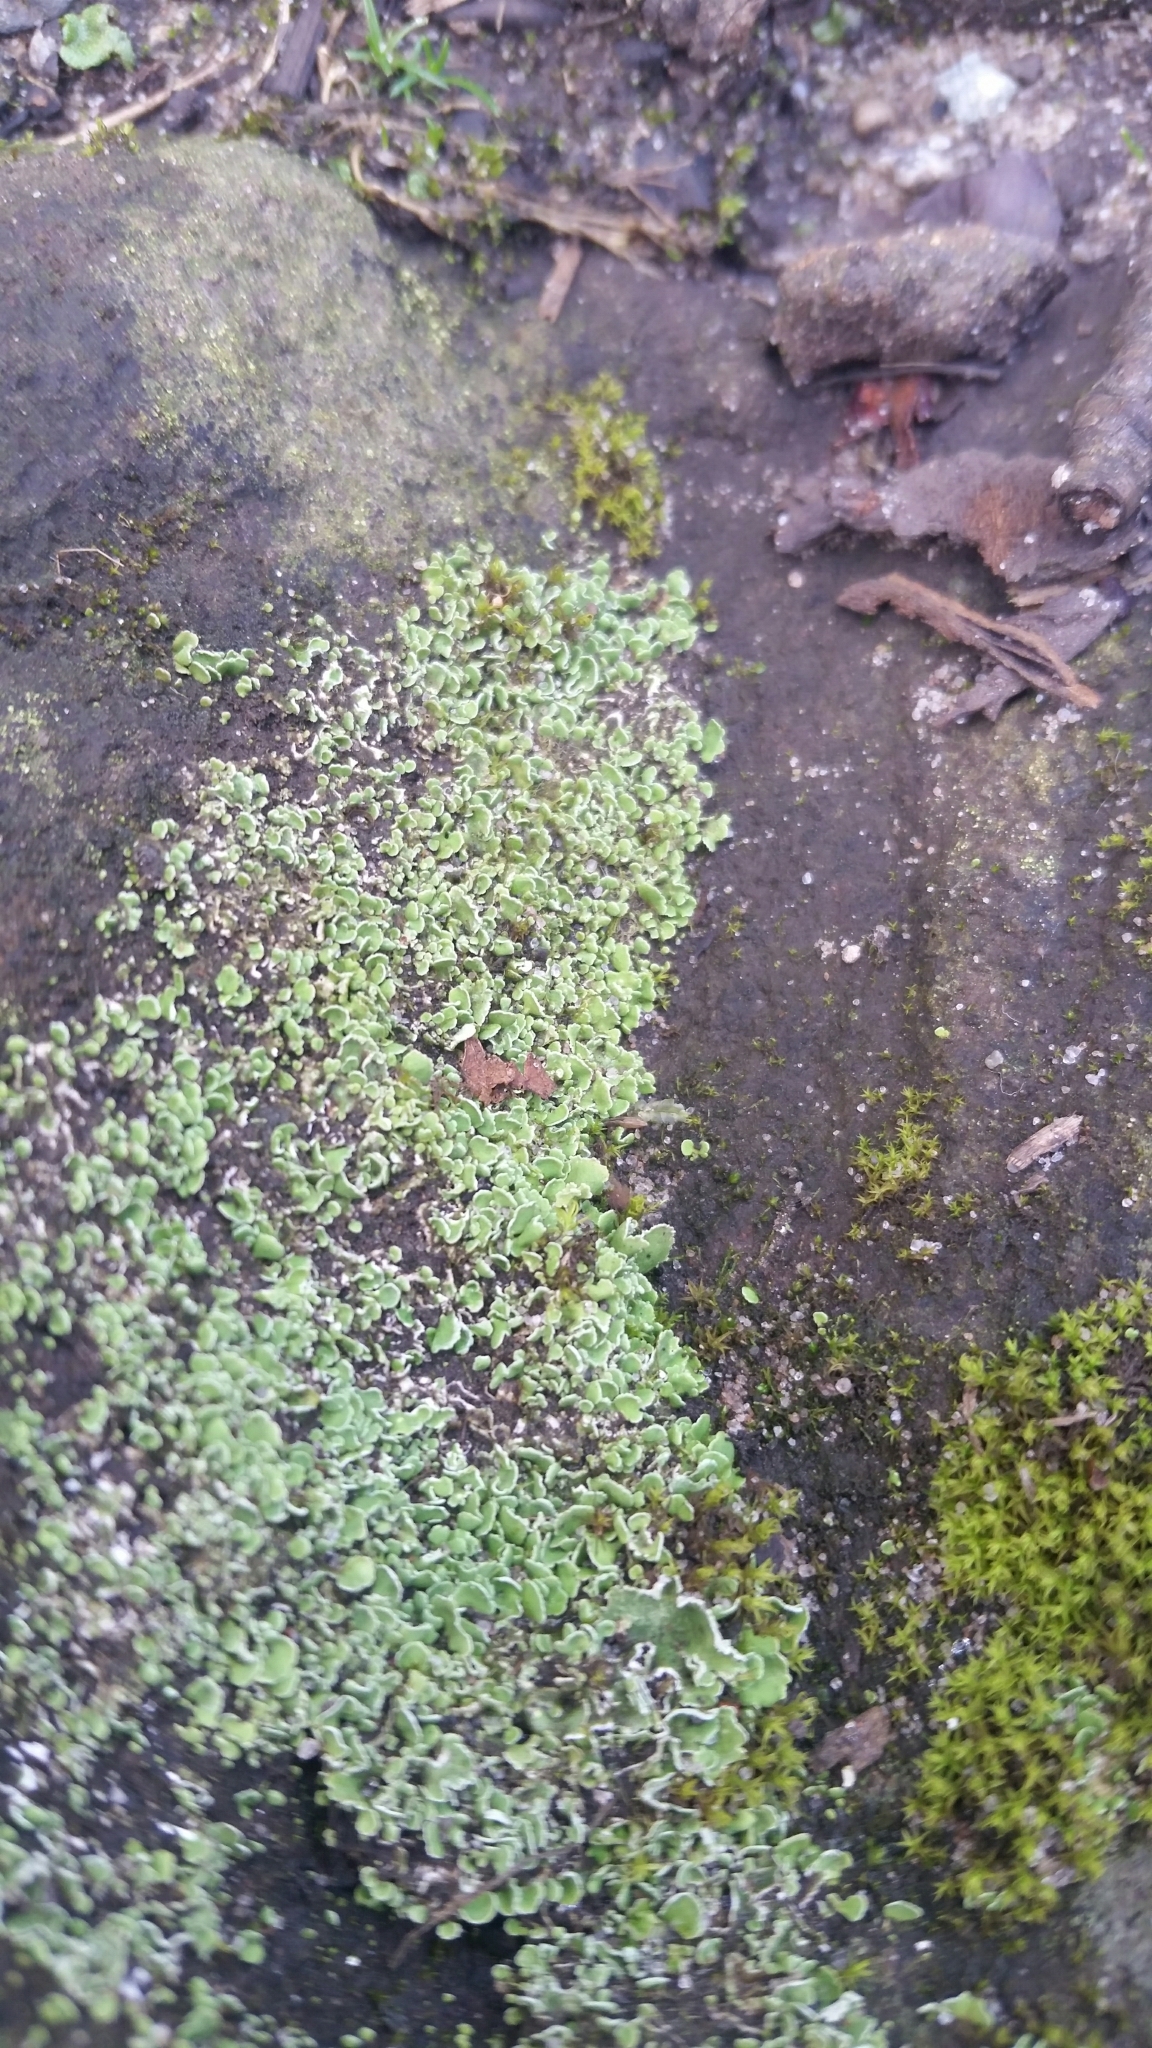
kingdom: Fungi
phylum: Ascomycota
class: Lecanoromycetes
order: Lecanorales
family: Cladoniaceae
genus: Cladonia
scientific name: Cladonia
